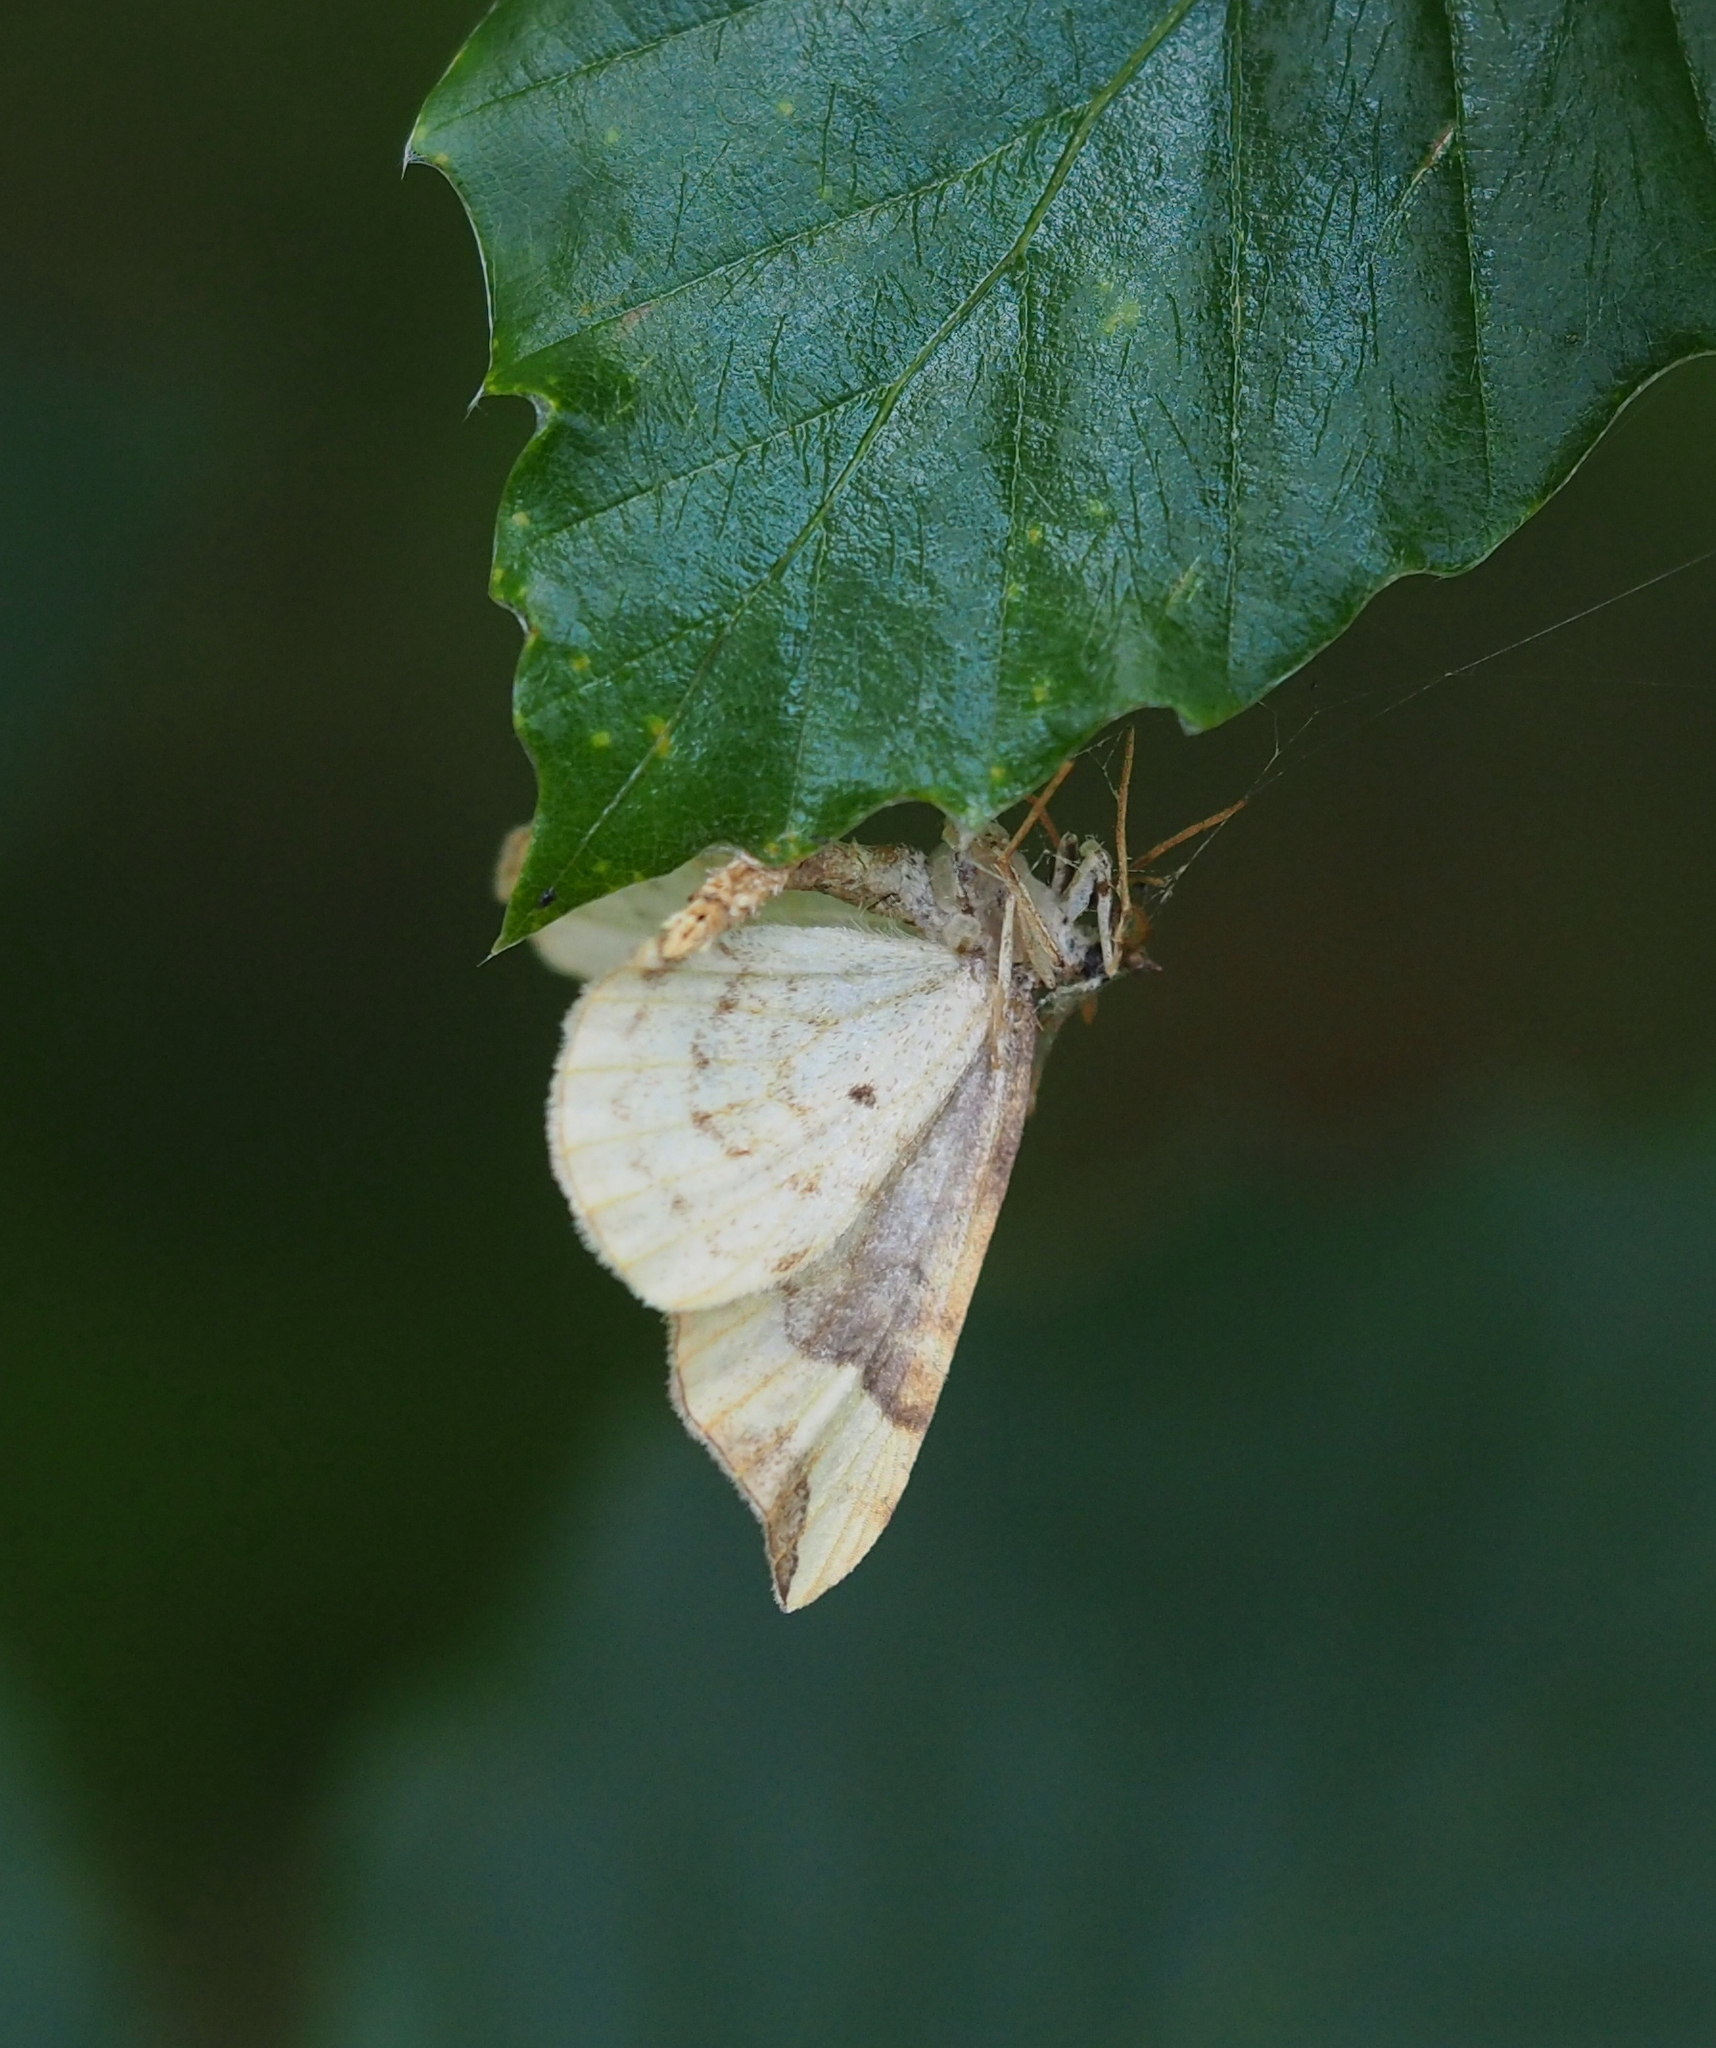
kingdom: Animalia
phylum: Arthropoda
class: Insecta
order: Lepidoptera
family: Geometridae
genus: Eulithis
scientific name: Eulithis populata
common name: Northern spinach
